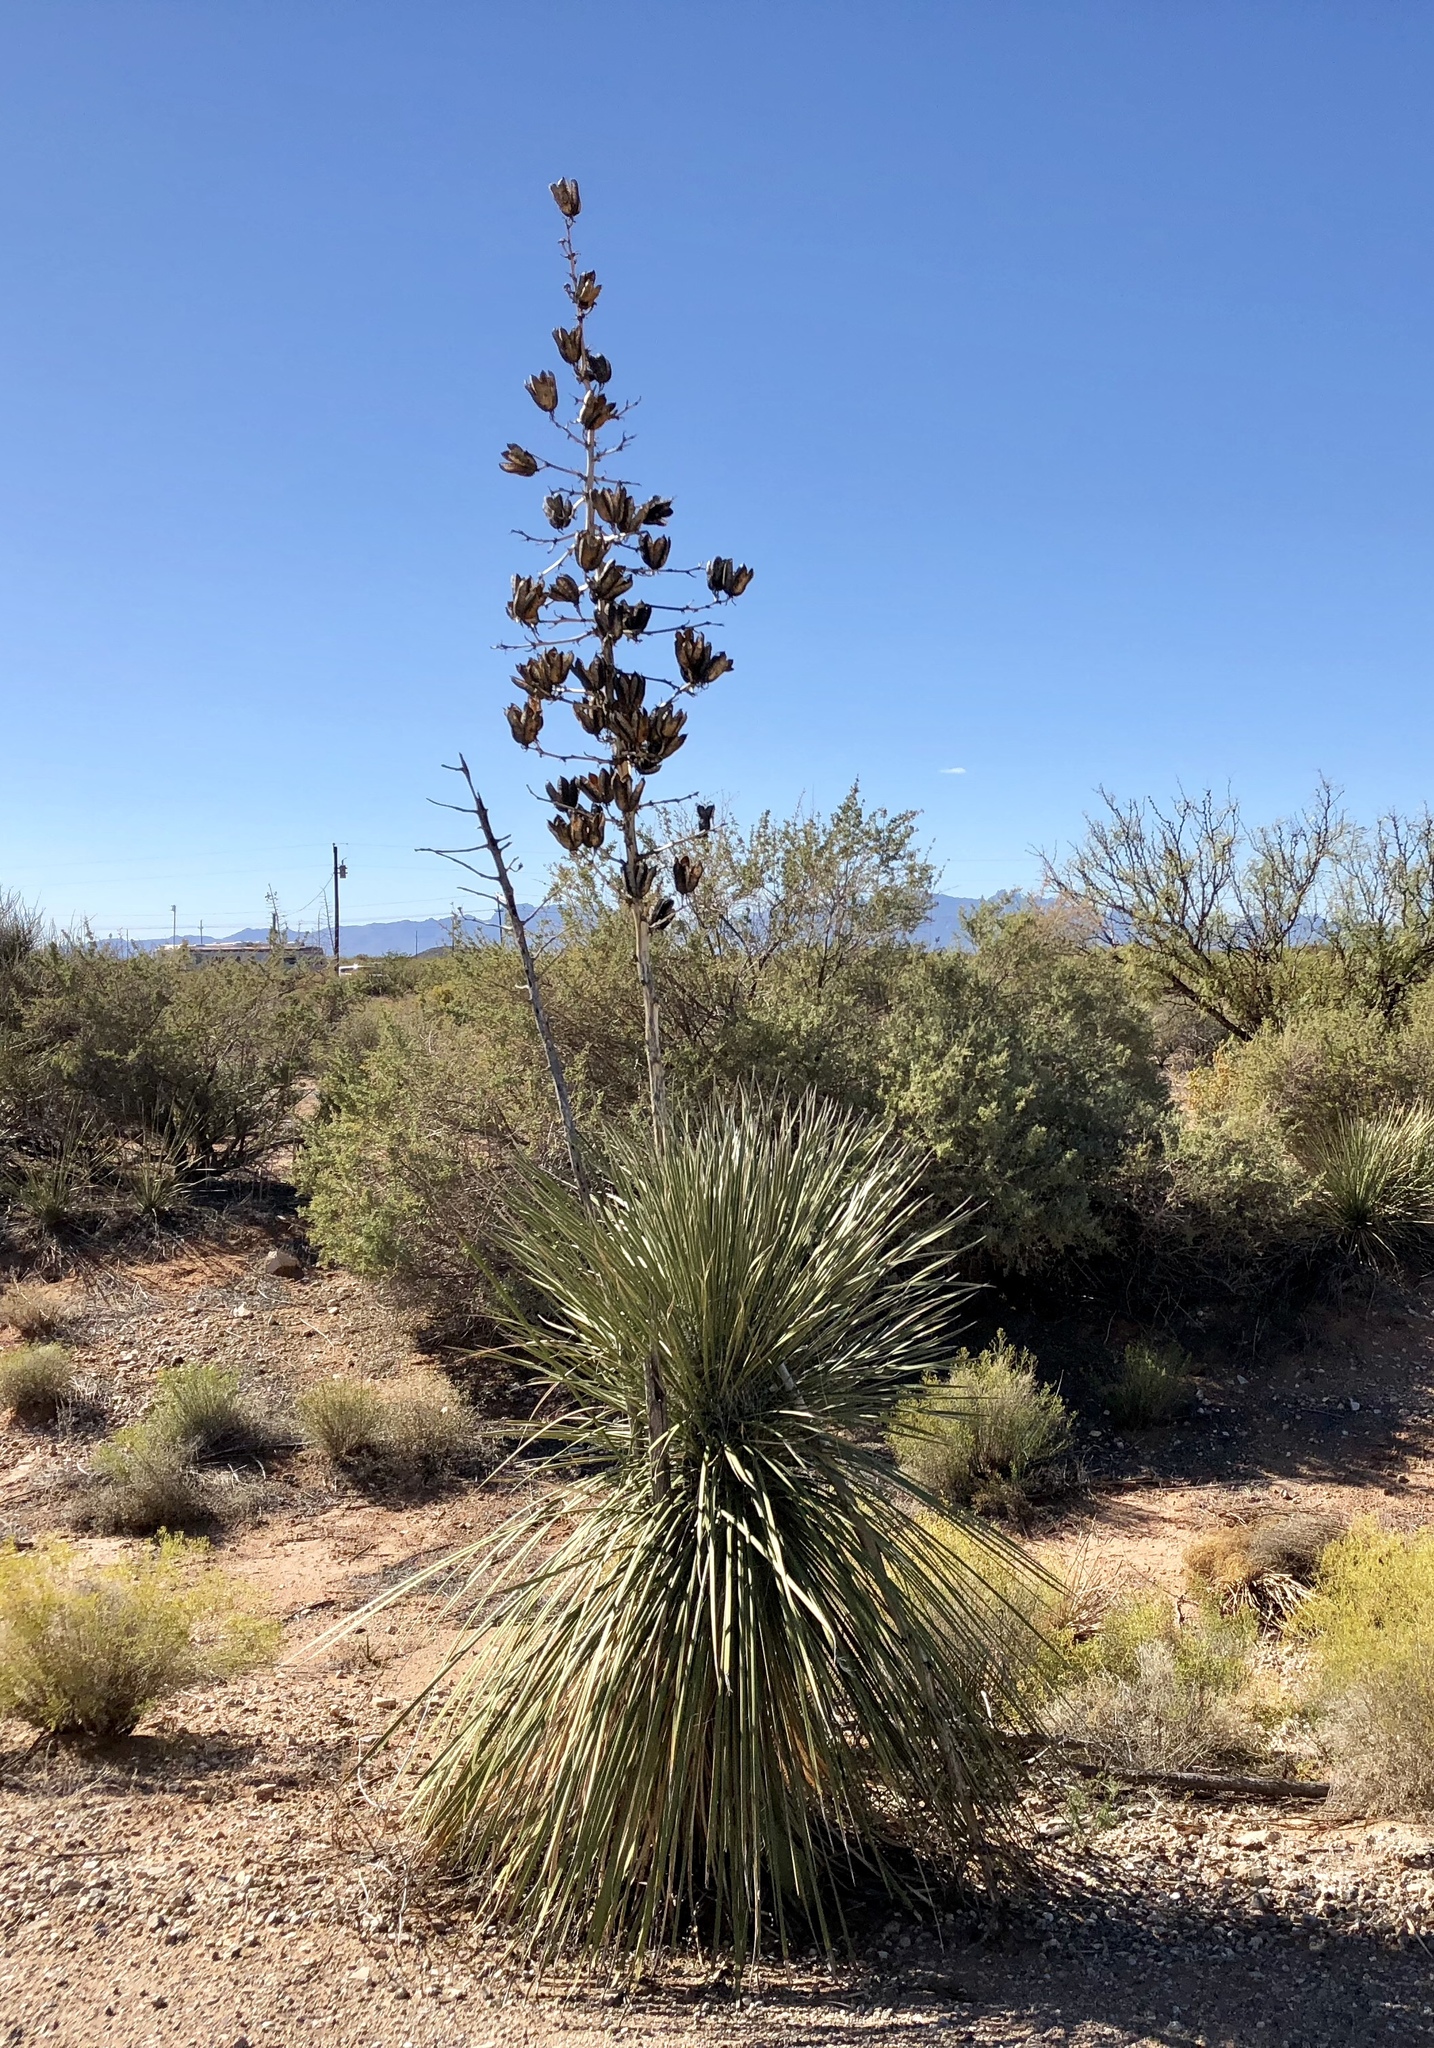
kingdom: Plantae
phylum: Tracheophyta
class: Liliopsida
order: Asparagales
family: Asparagaceae
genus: Yucca
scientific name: Yucca elata
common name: Palmella
